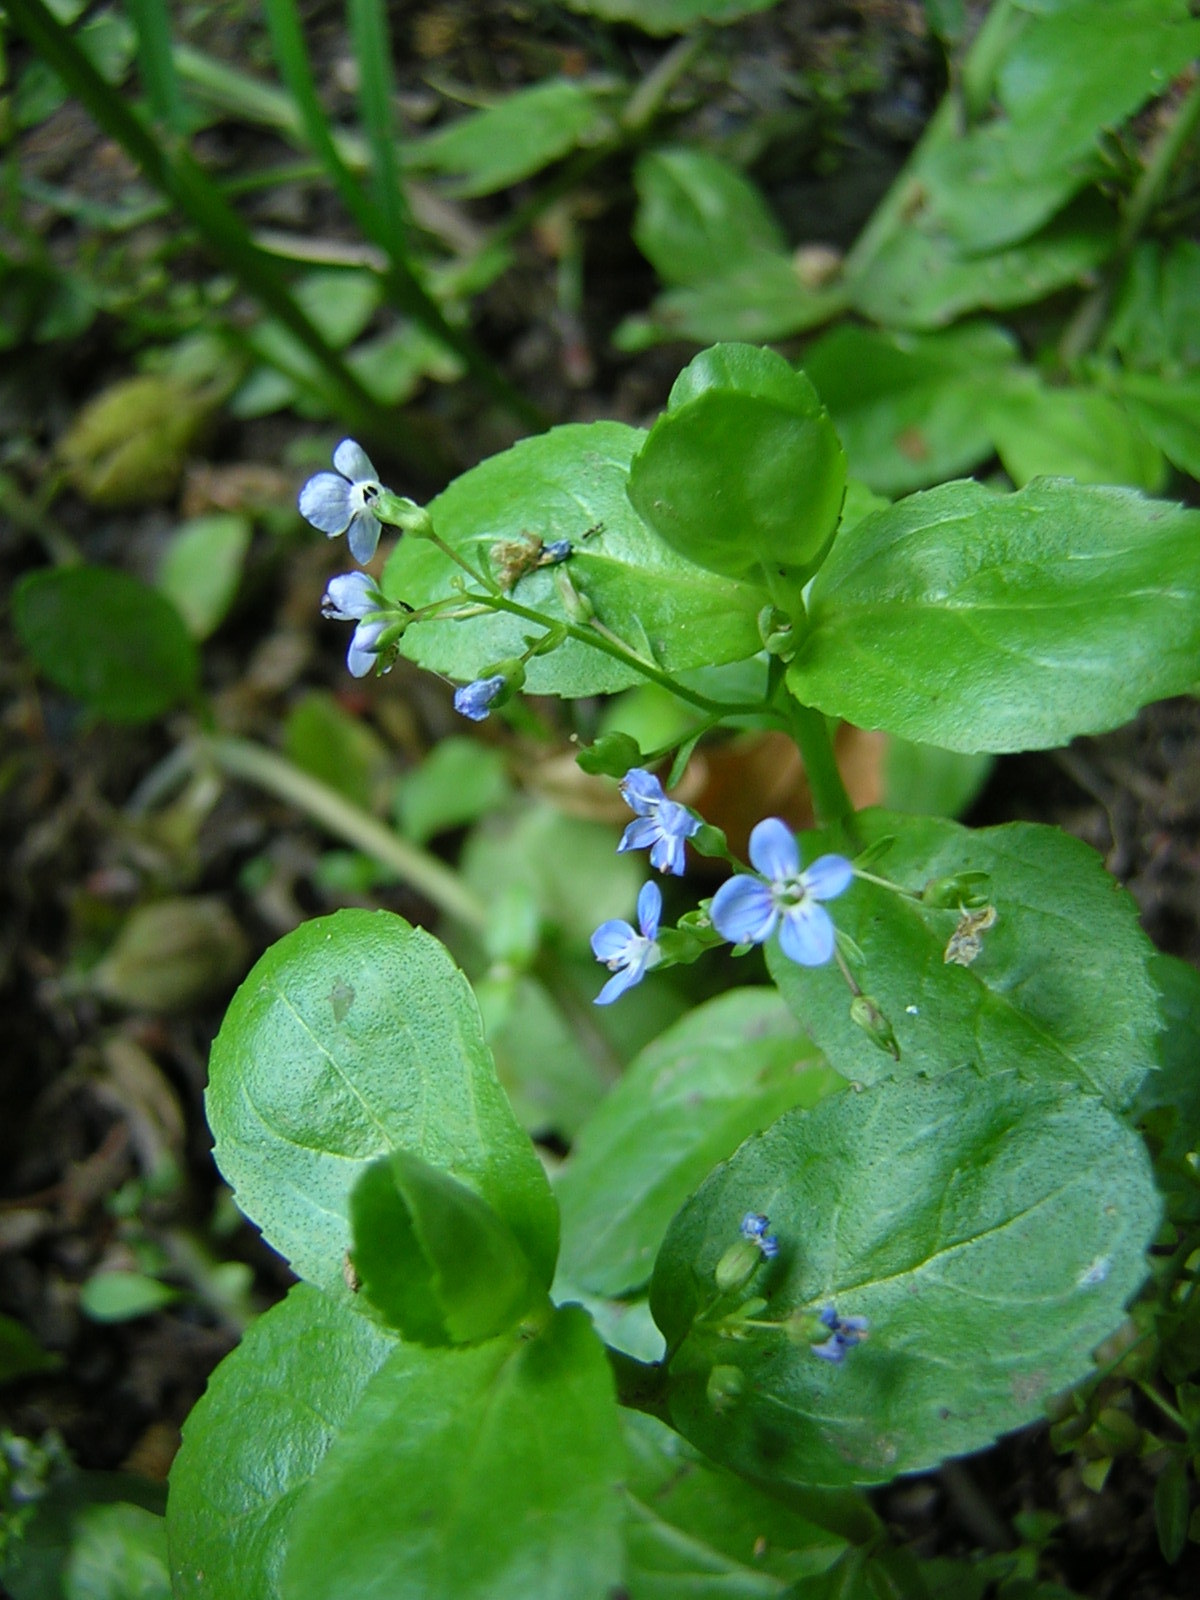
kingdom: Plantae
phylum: Tracheophyta
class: Magnoliopsida
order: Lamiales
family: Plantaginaceae
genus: Veronica
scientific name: Veronica beccabunga
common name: Brooklime
